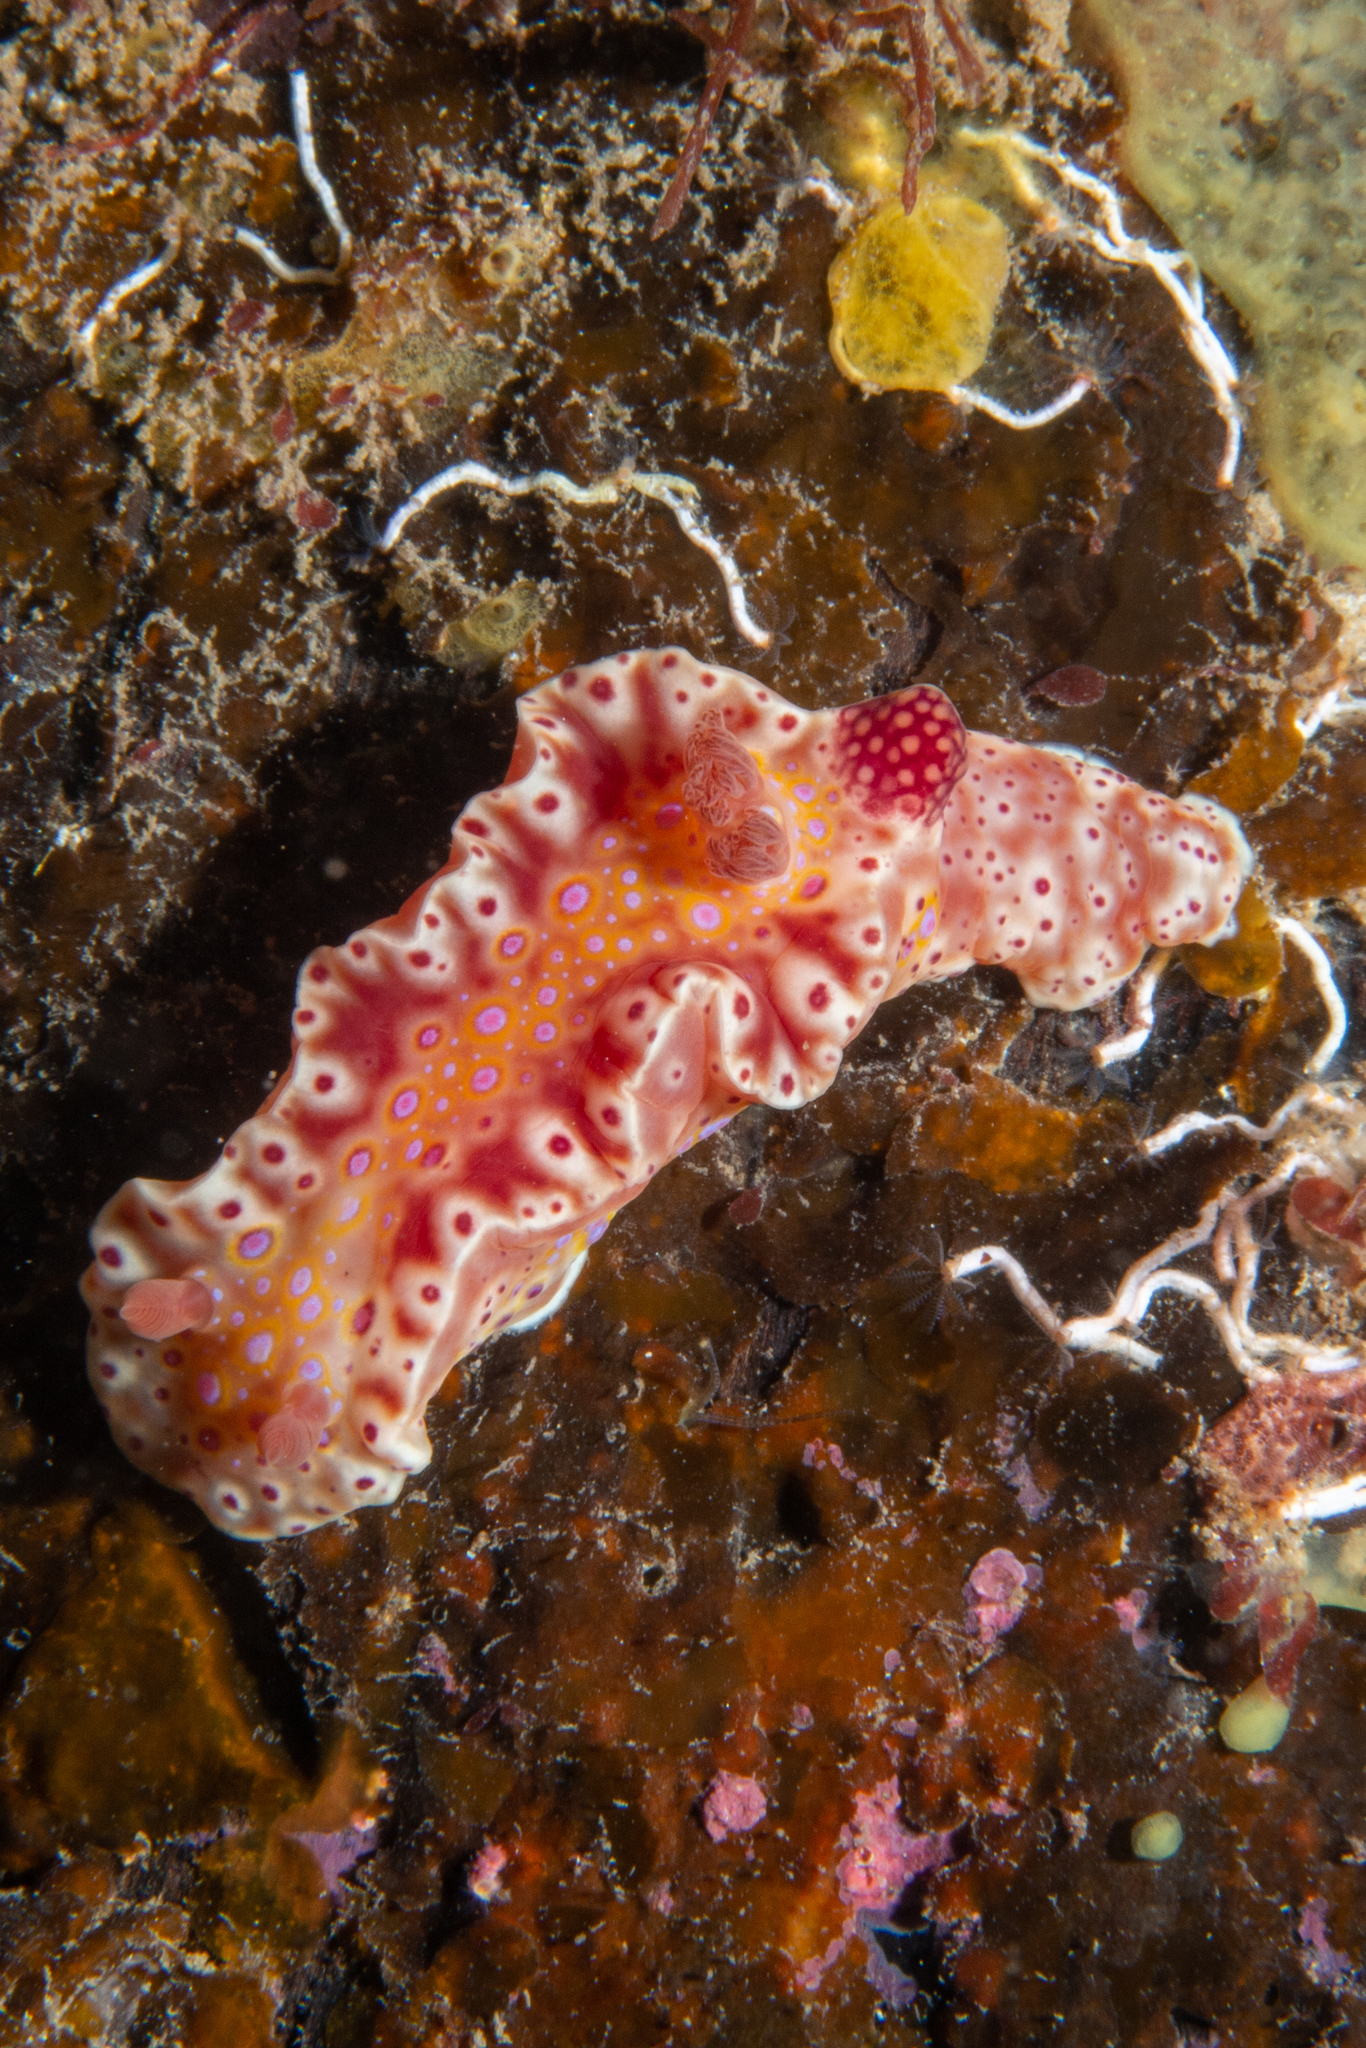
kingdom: Animalia
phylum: Mollusca
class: Gastropoda
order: Nudibranchia
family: Chromodorididae
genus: Ceratosoma
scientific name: Ceratosoma brevicaudatum
